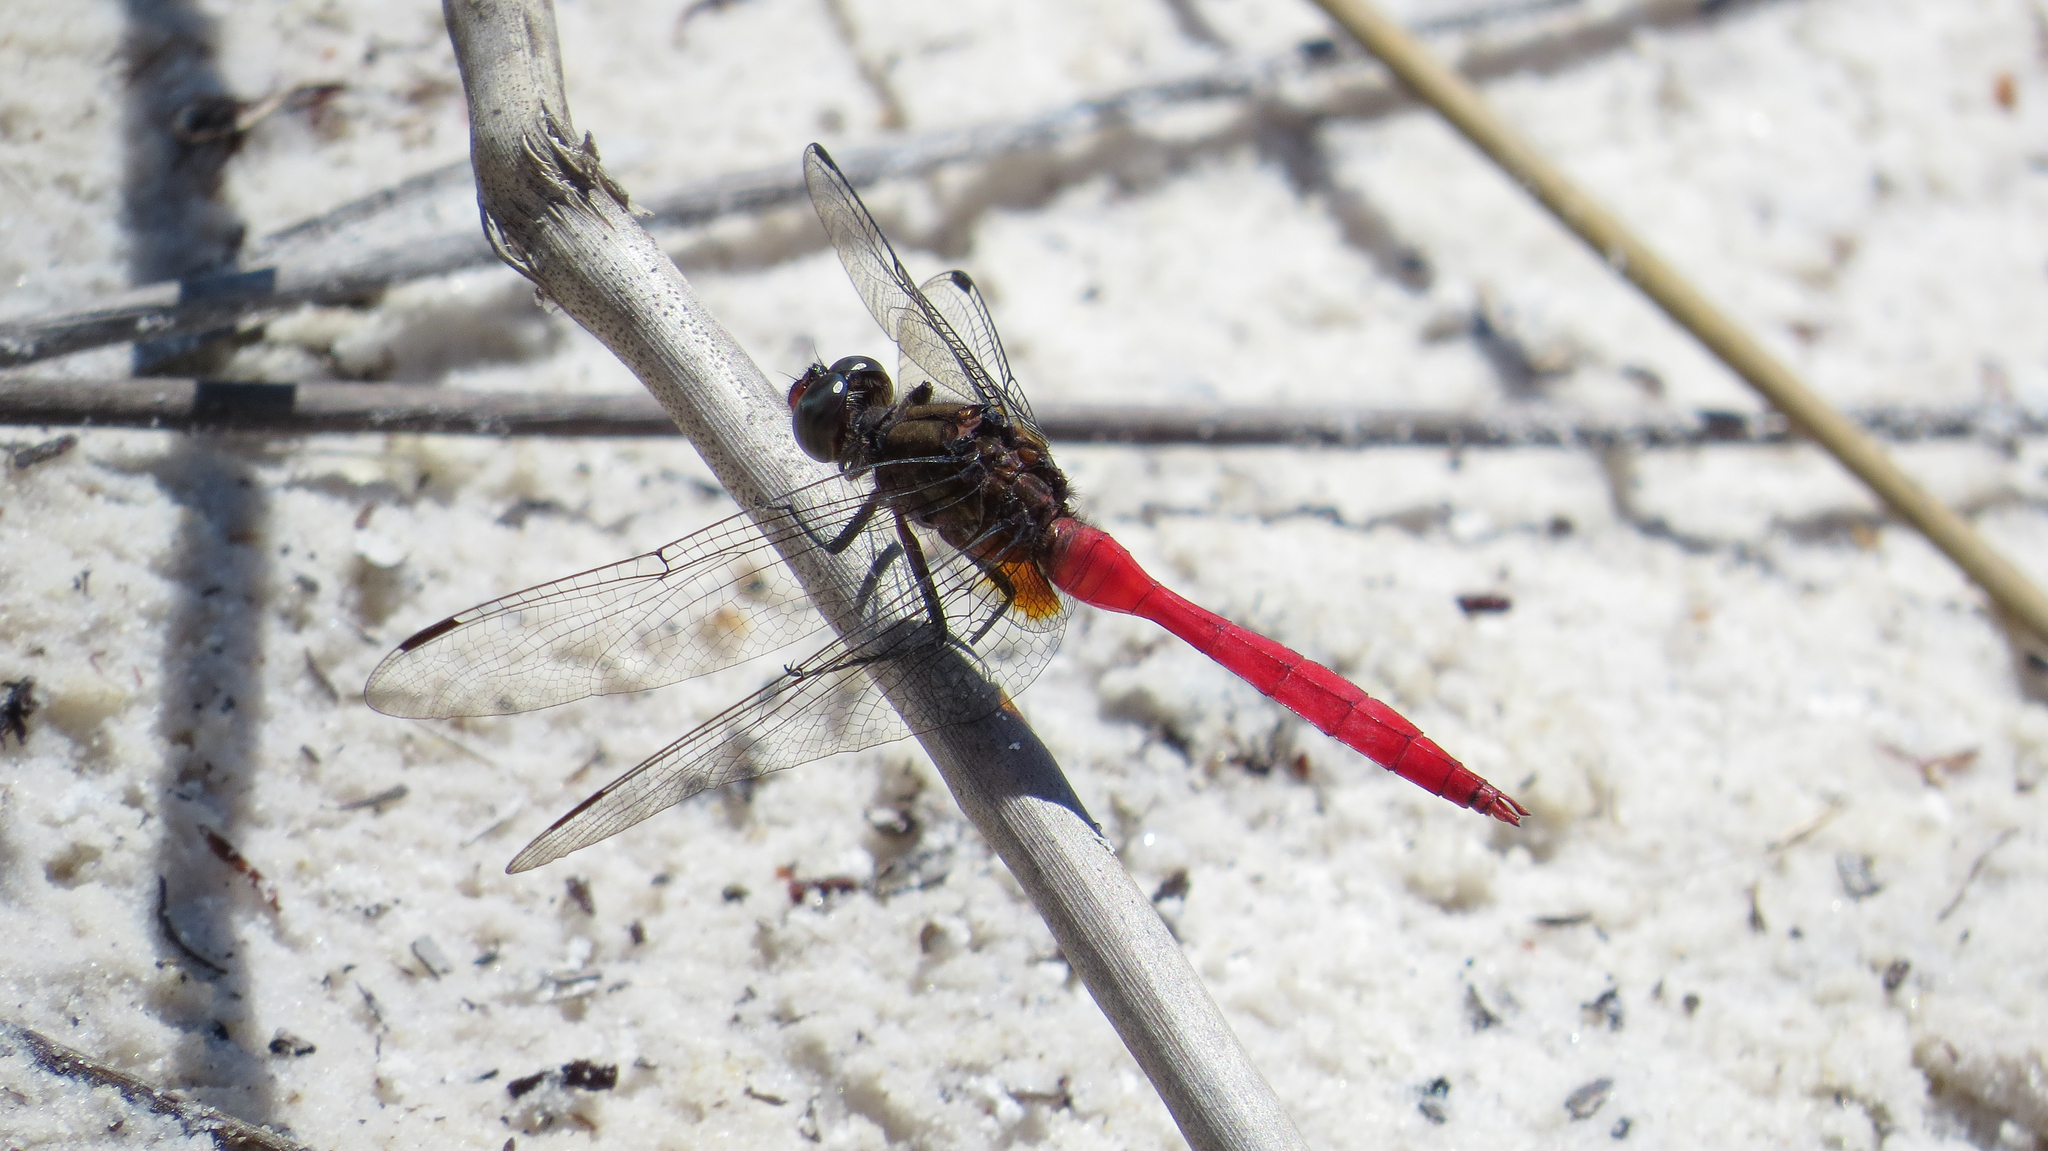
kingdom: Animalia
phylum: Arthropoda
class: Insecta
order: Odonata
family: Libellulidae
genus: Orthetrum
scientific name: Orthetrum villosovittatum
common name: Firery skimmer
